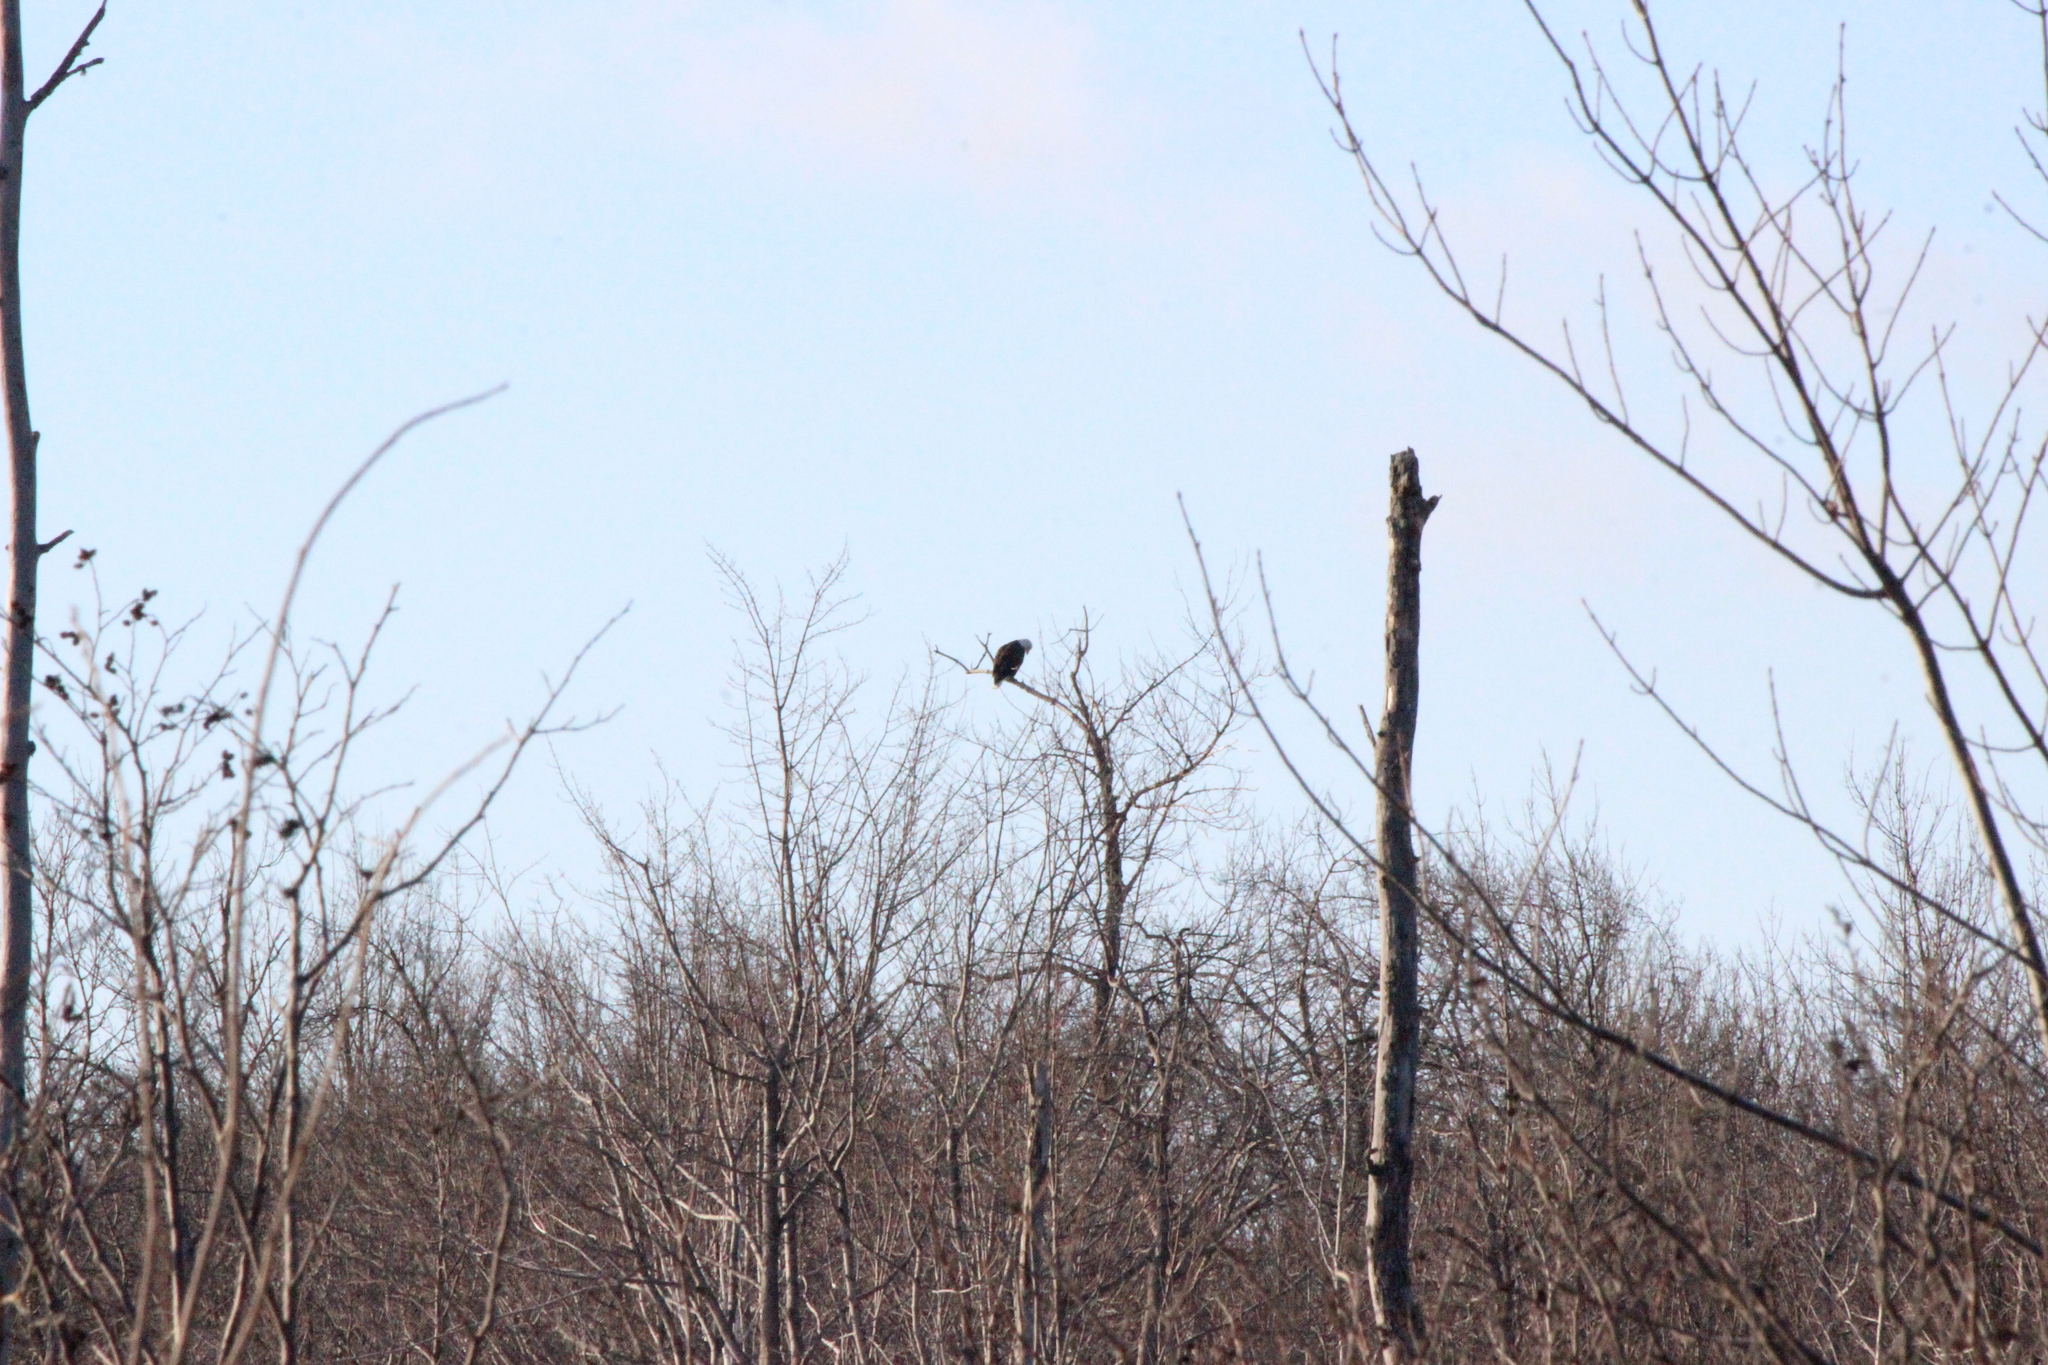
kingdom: Animalia
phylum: Chordata
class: Aves
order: Accipitriformes
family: Accipitridae
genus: Haliaeetus
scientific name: Haliaeetus leucocephalus
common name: Bald eagle
